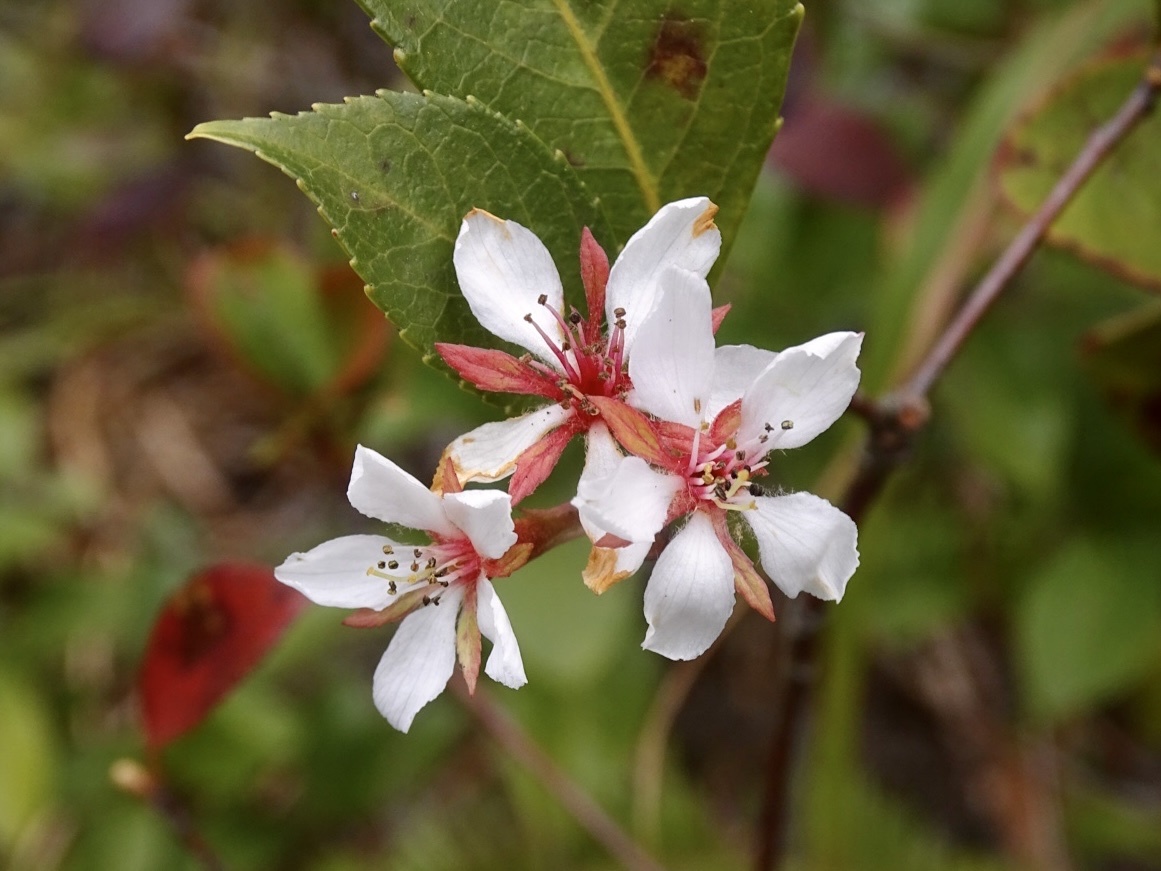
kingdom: Plantae
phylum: Tracheophyta
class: Magnoliopsida
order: Rosales
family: Rosaceae
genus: Rhaphiolepis
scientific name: Rhaphiolepis indica
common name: India-hawthorn
